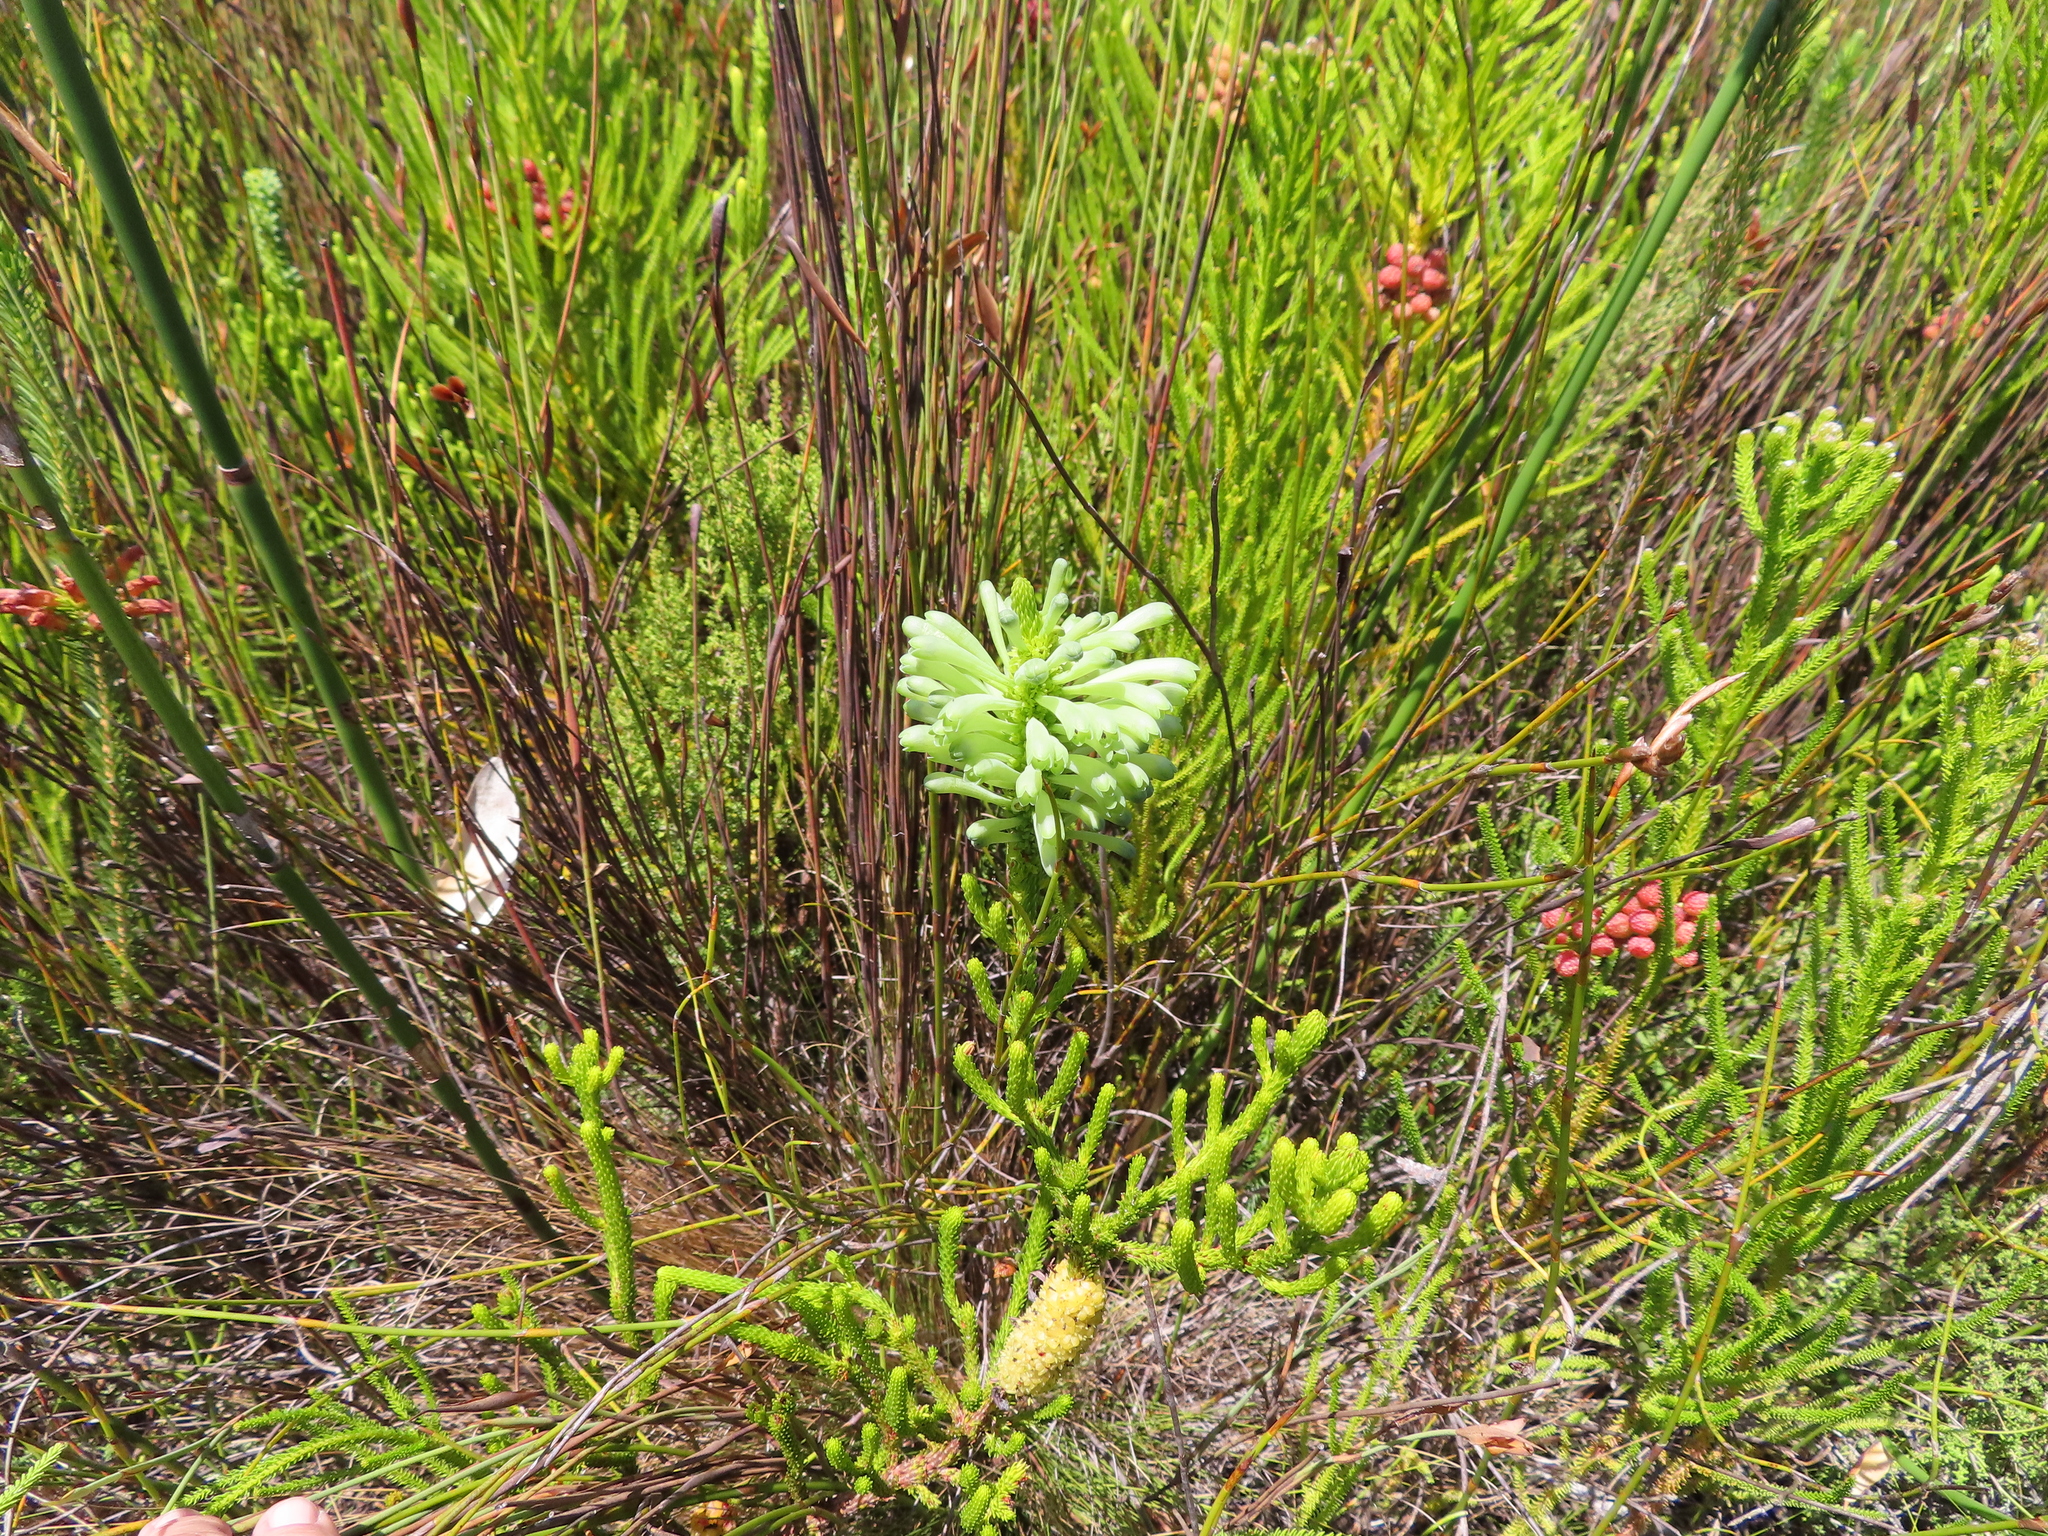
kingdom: Plantae
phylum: Tracheophyta
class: Magnoliopsida
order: Ericales
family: Ericaceae
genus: Erica
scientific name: Erica sessiliflora
